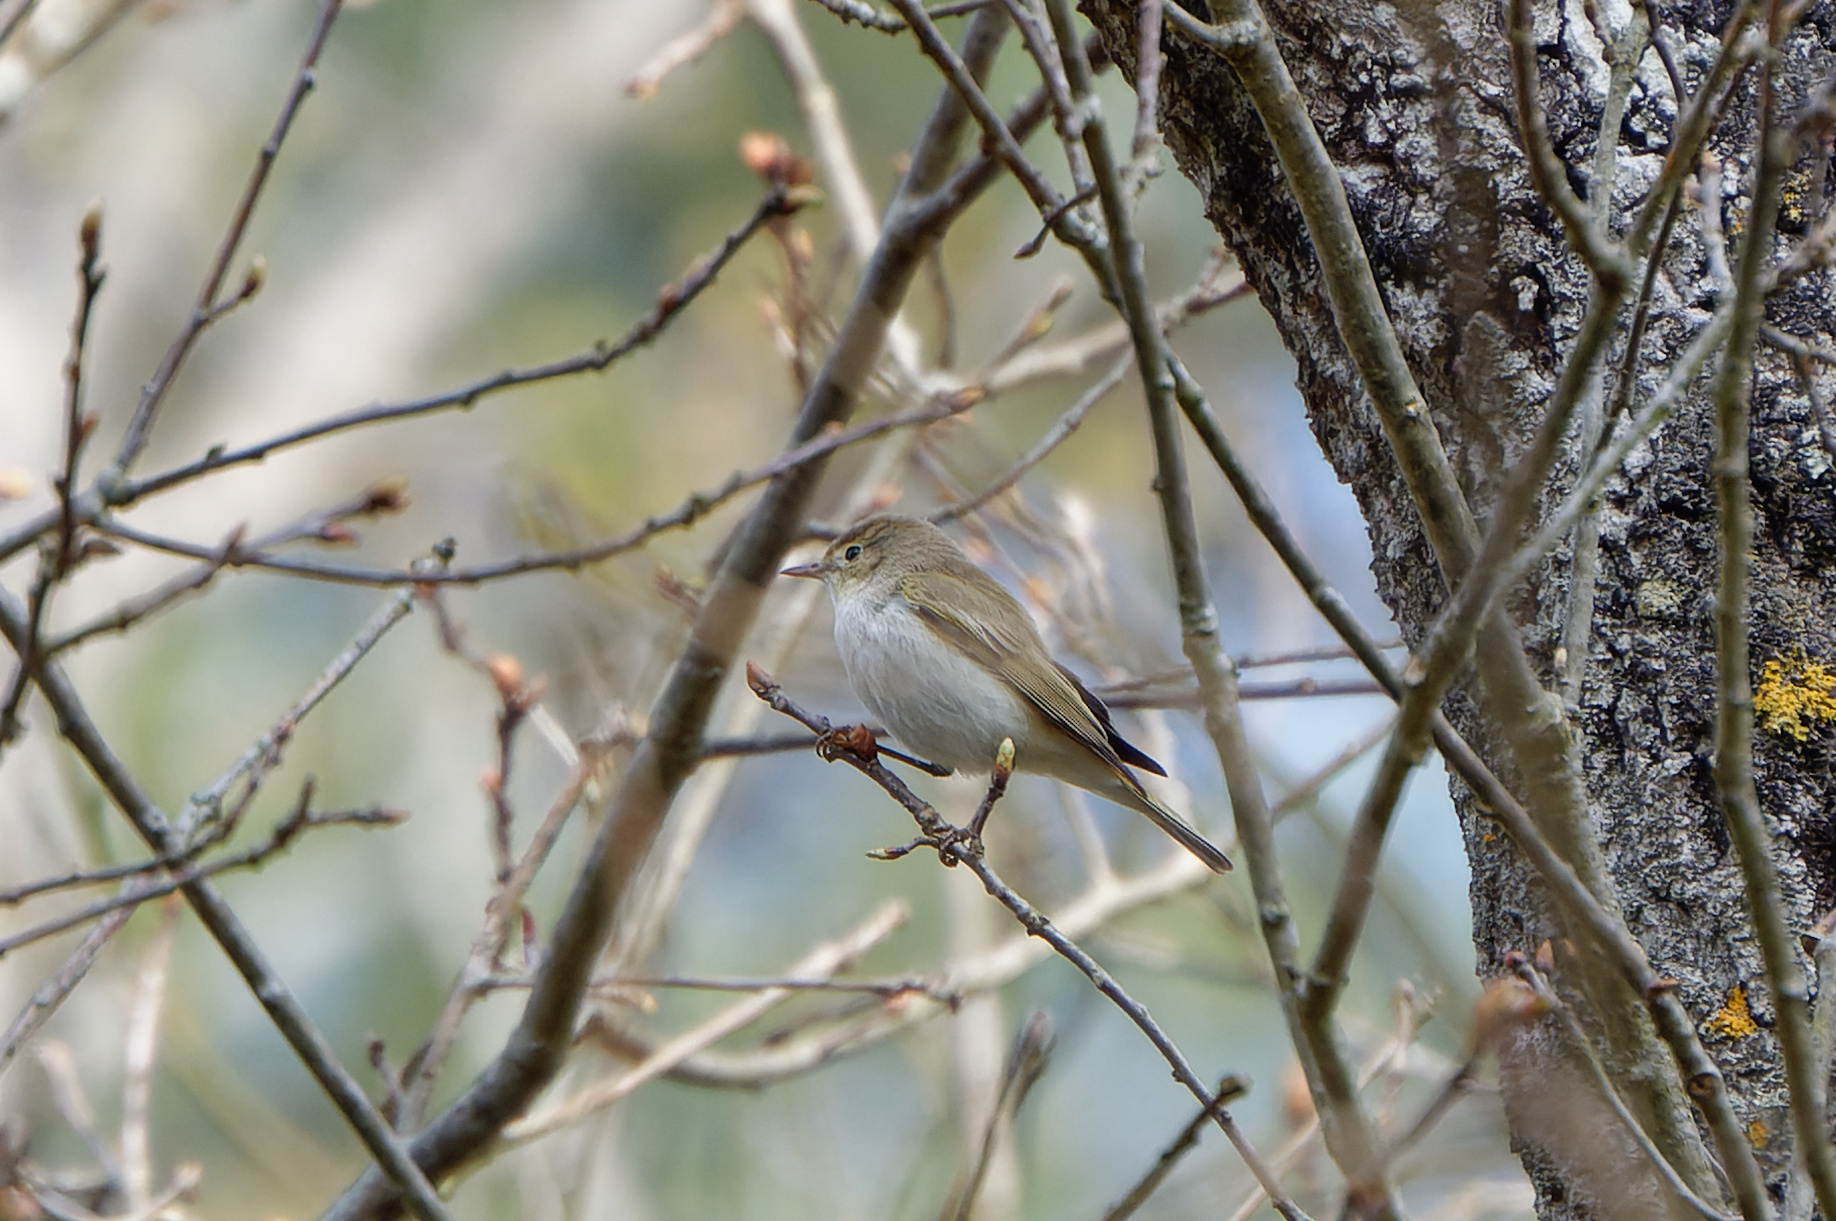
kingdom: Animalia
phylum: Chordata
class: Aves
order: Passeriformes
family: Phylloscopidae
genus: Phylloscopus
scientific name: Phylloscopus bonelli
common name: Western bonelli's warbler
